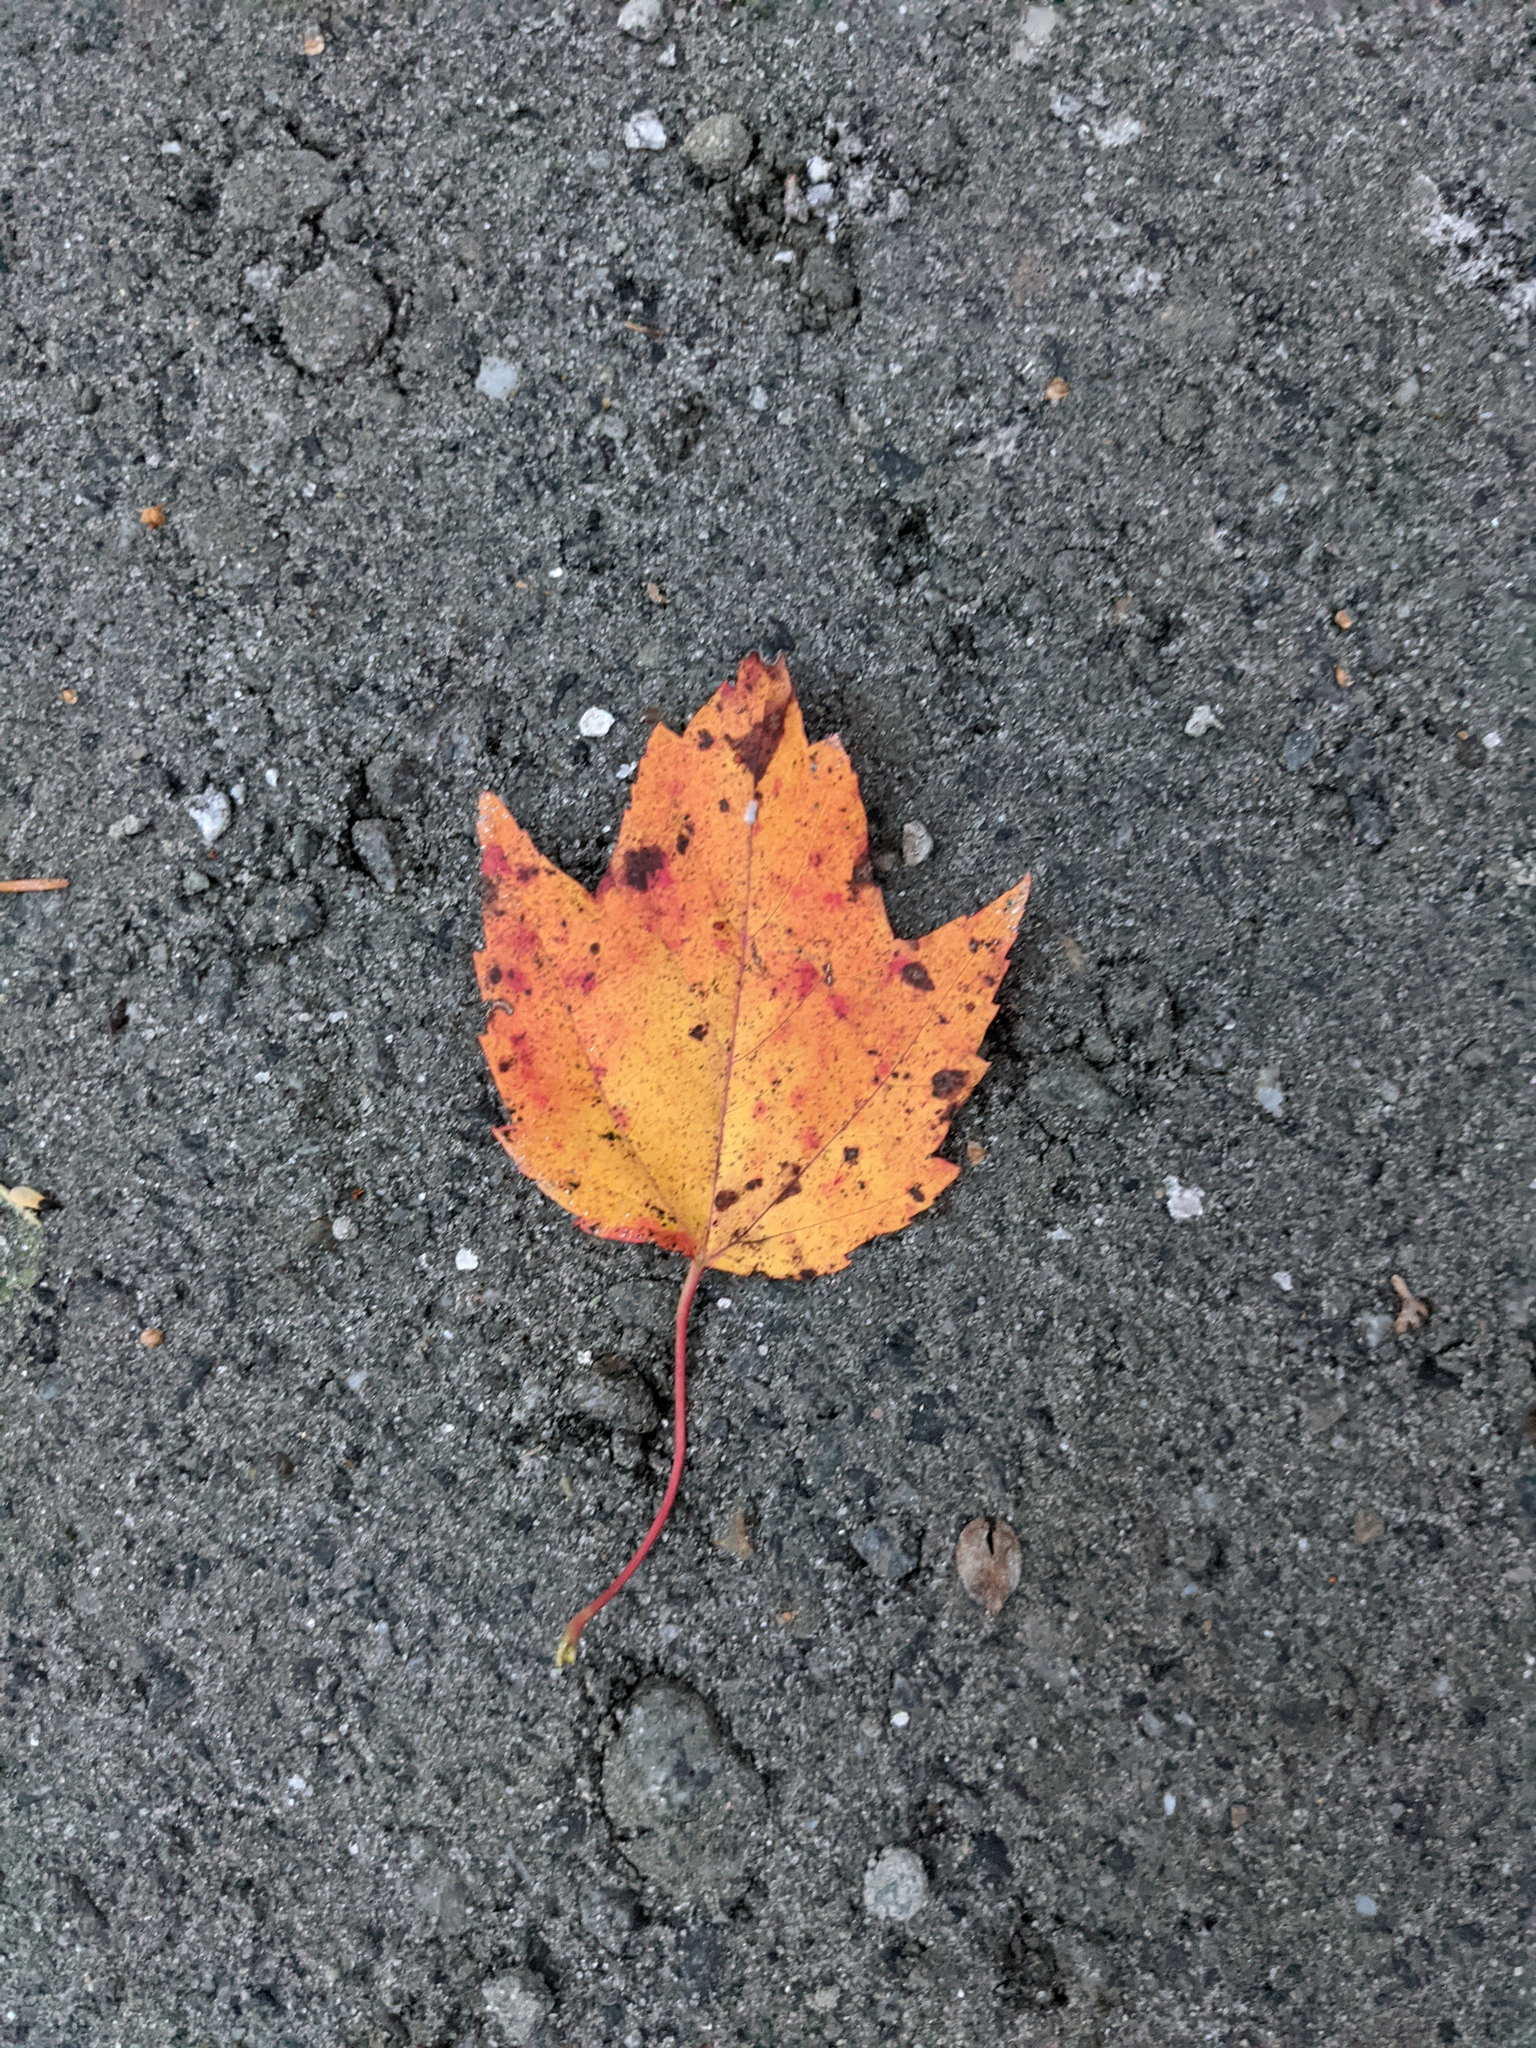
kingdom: Plantae
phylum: Tracheophyta
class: Magnoliopsida
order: Sapindales
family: Sapindaceae
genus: Acer
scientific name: Acer rubrum
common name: Red maple
